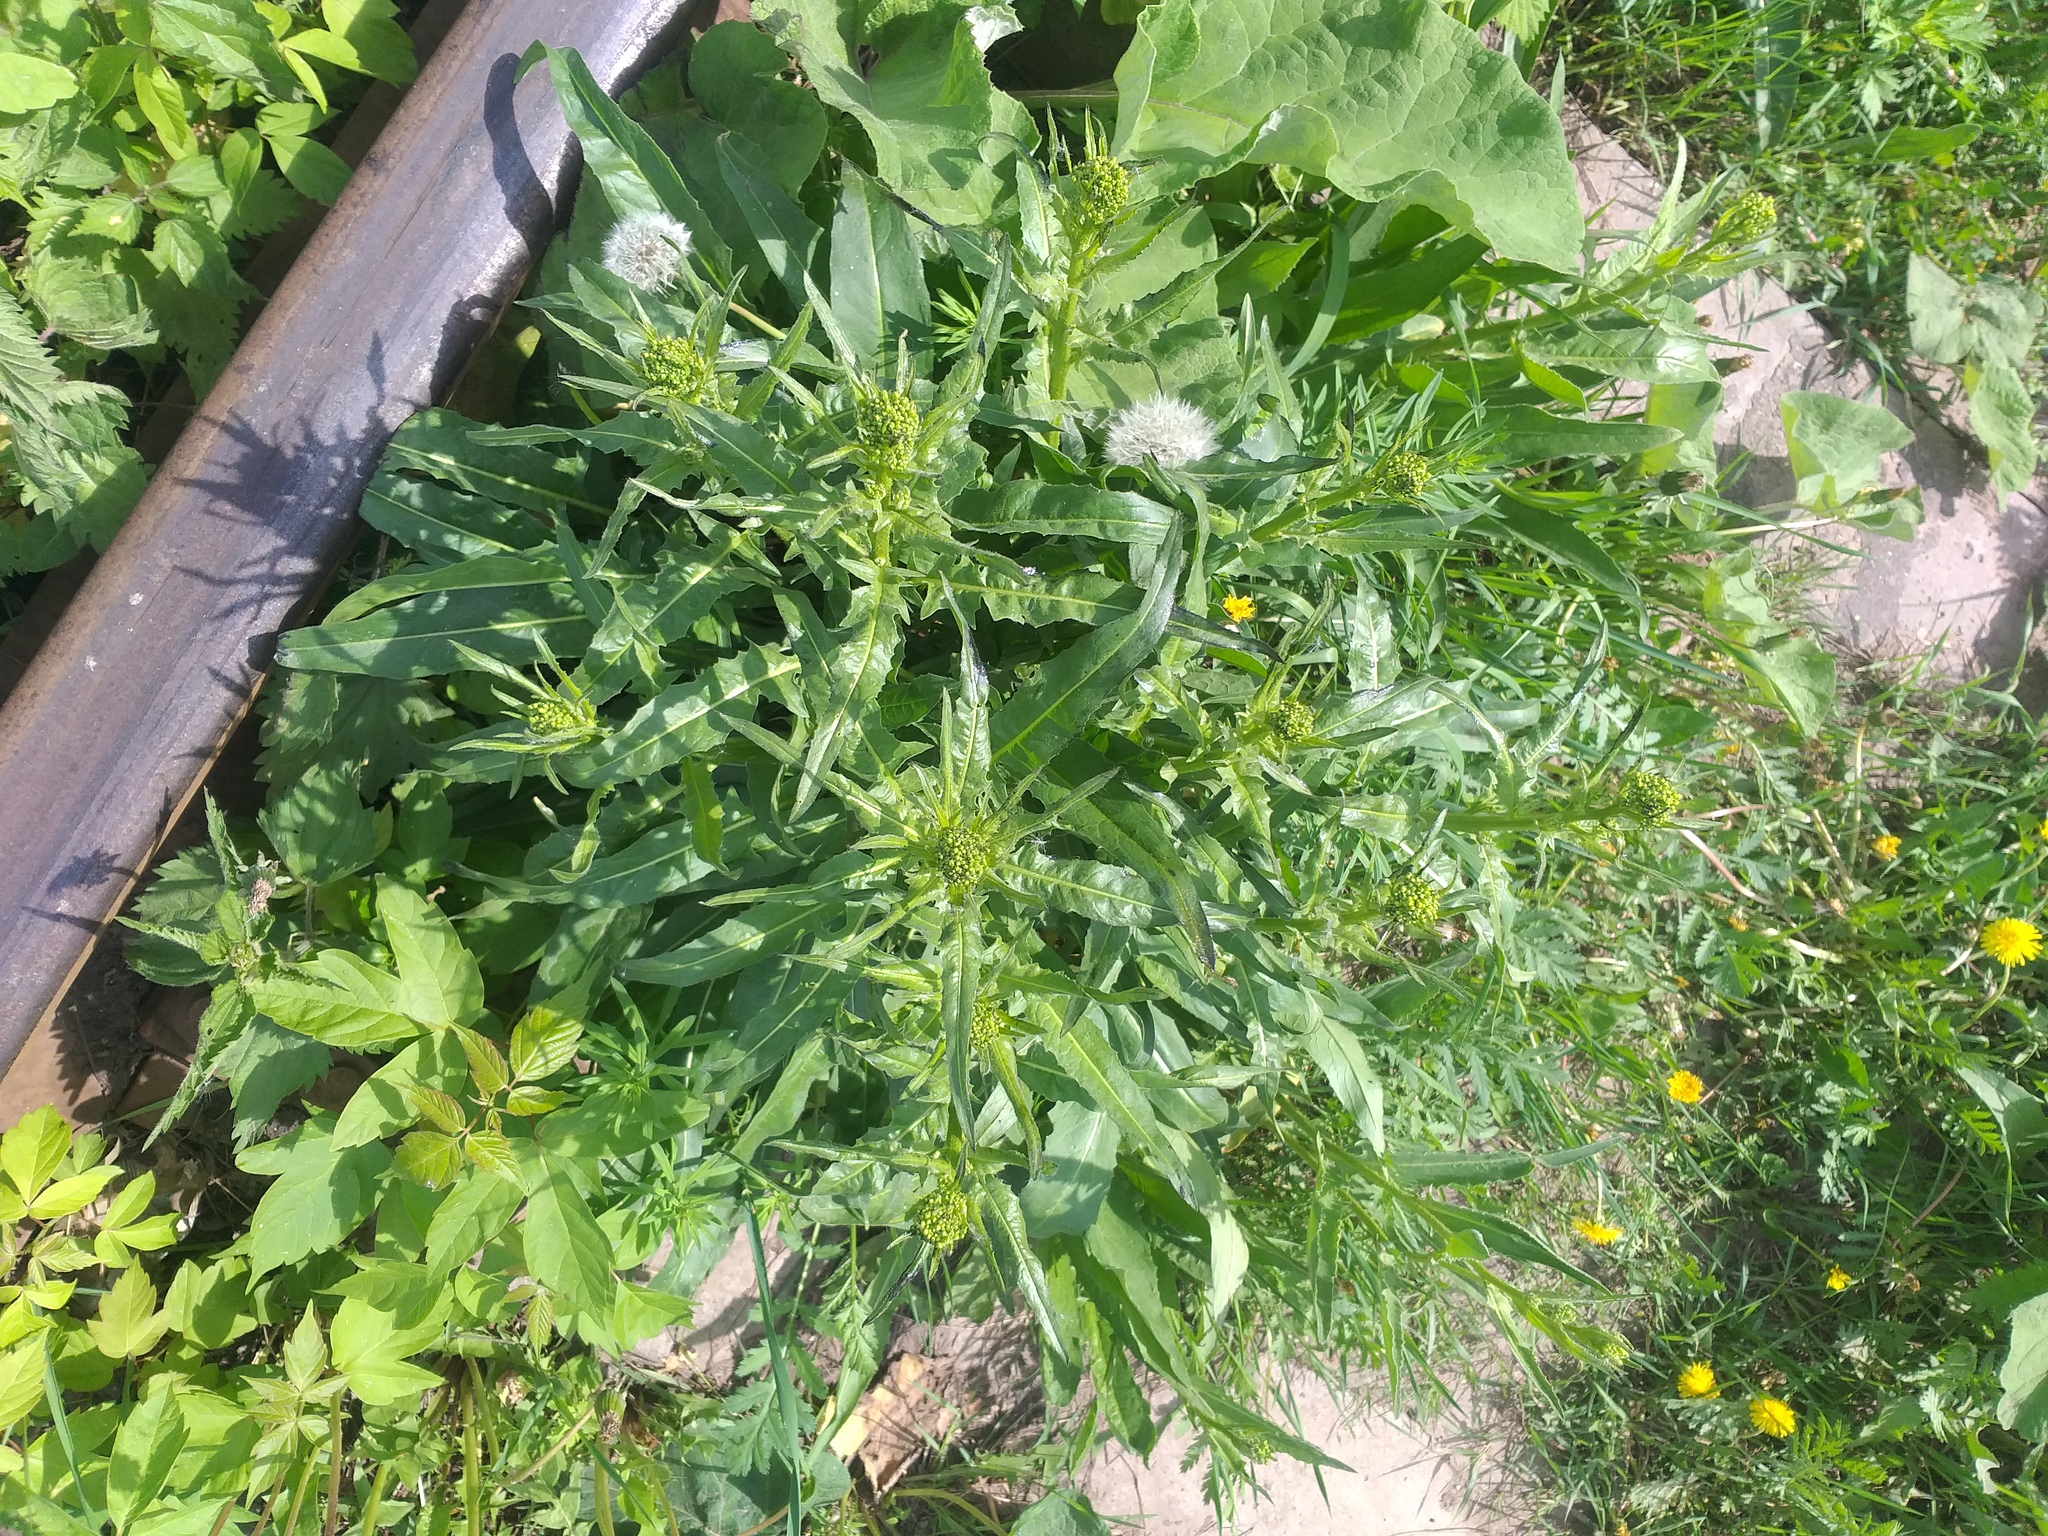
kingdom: Plantae
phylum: Tracheophyta
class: Magnoliopsida
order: Brassicales
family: Brassicaceae
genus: Bunias
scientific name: Bunias orientalis
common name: Warty-cabbage
